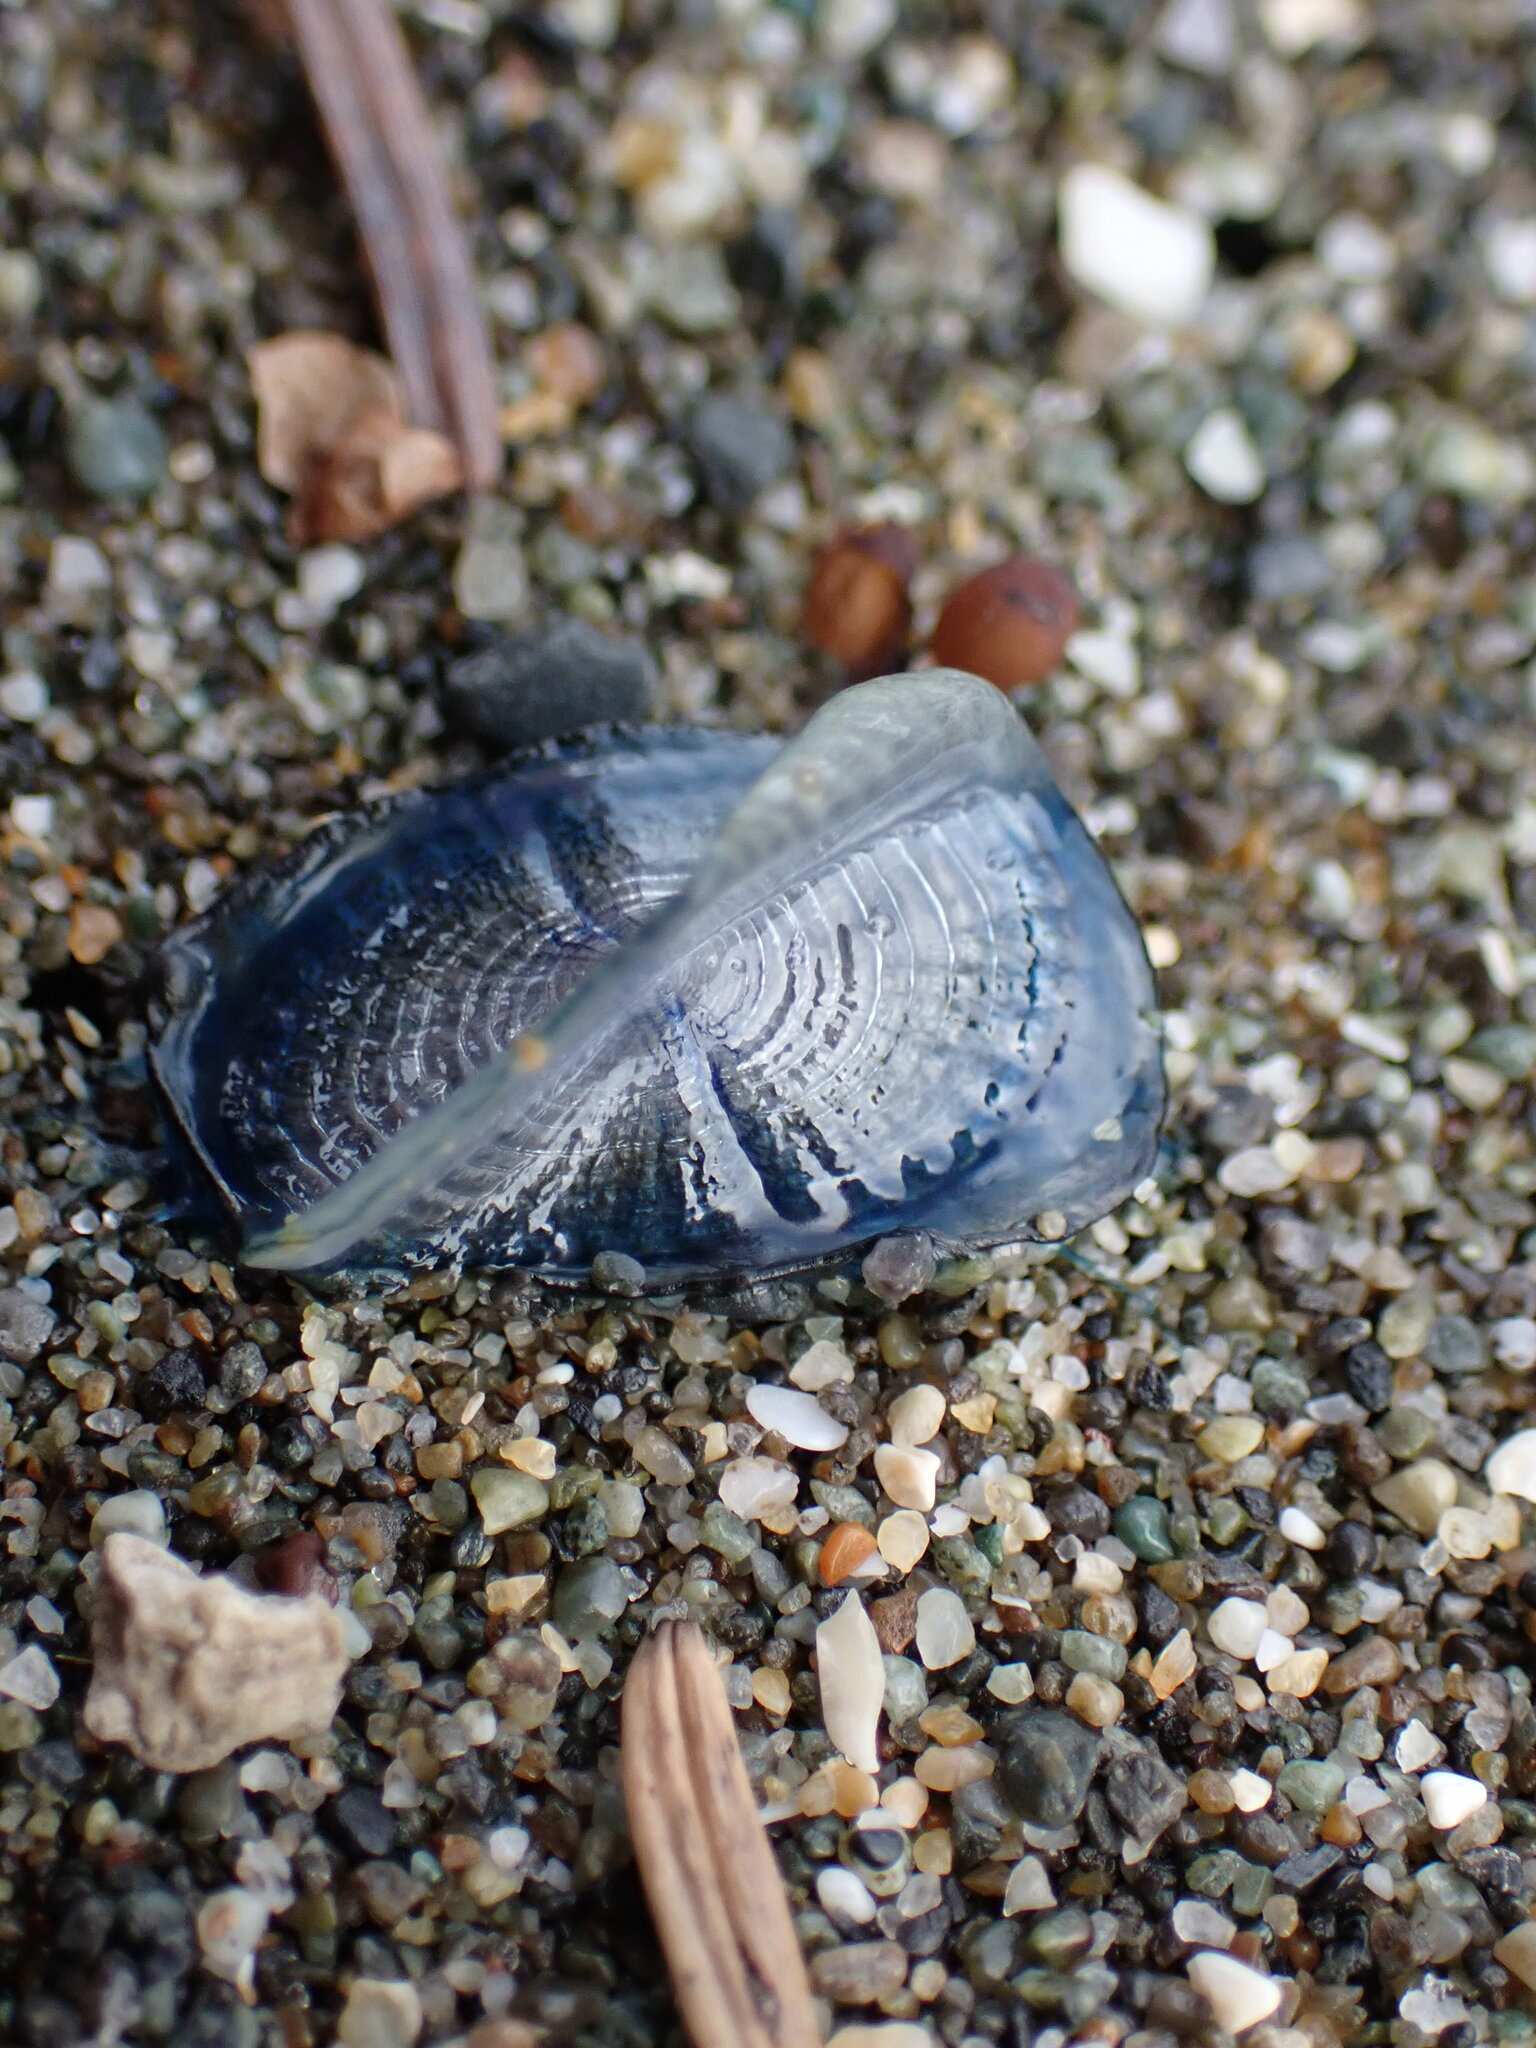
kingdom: Animalia
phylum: Cnidaria
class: Hydrozoa
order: Anthoathecata
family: Porpitidae
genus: Velella
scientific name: Velella velella
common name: By-the-wind-sailor
